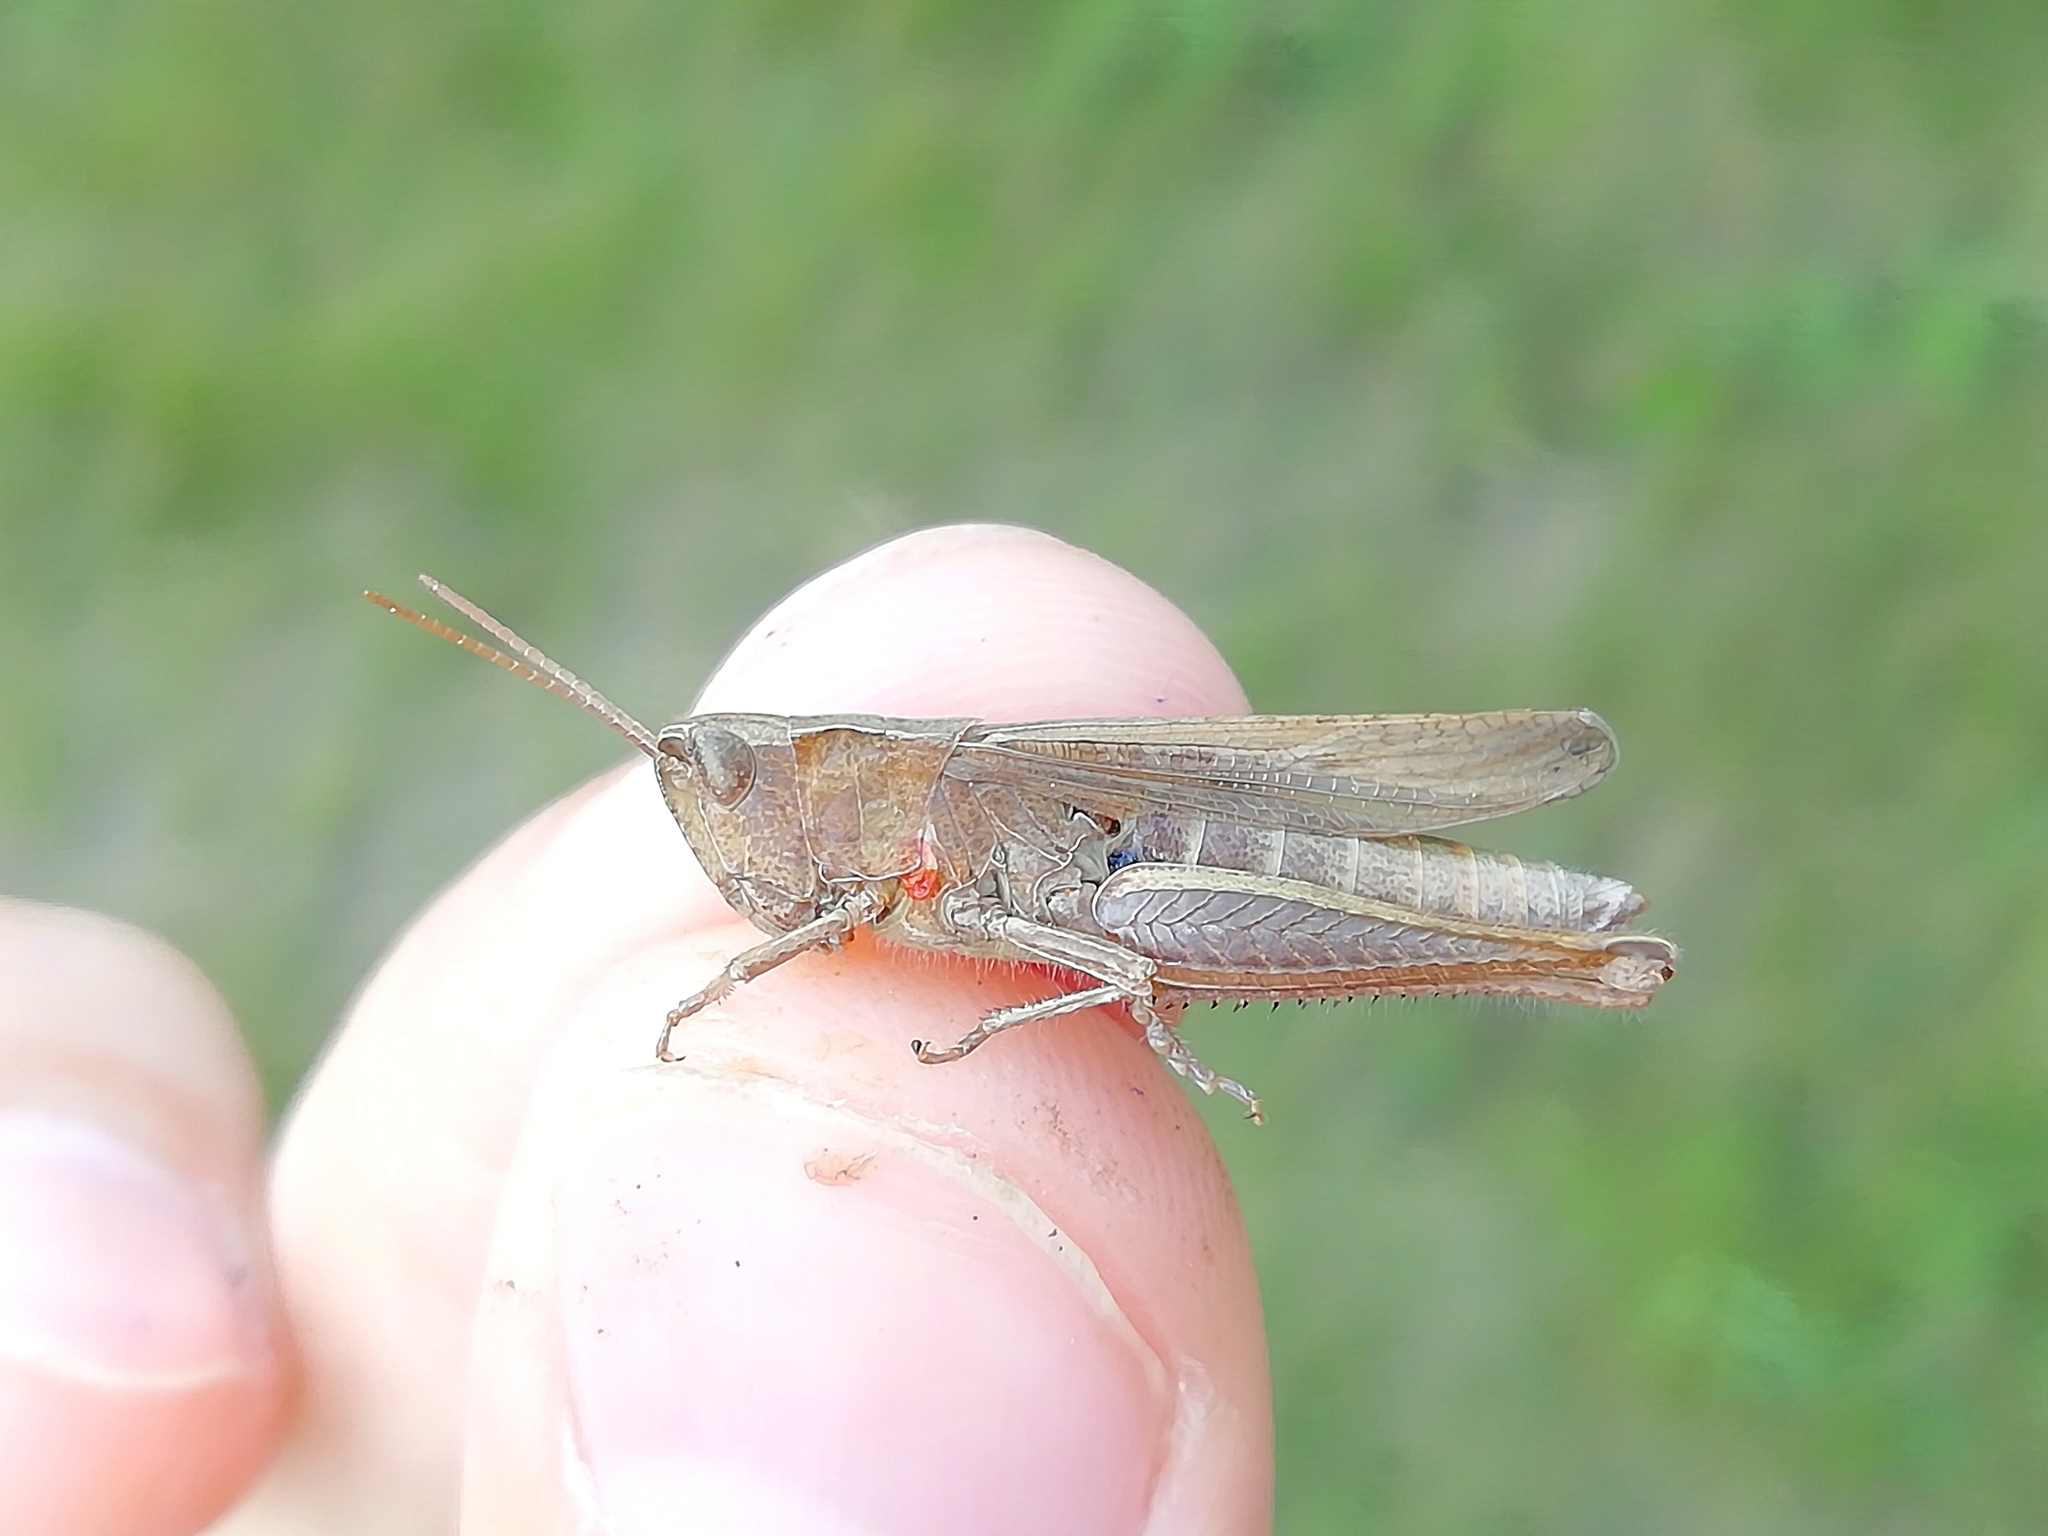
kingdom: Animalia
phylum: Arthropoda
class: Insecta
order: Orthoptera
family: Acrididae
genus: Chorthippus
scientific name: Chorthippus dorsatus
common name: Steppe grasshopper
